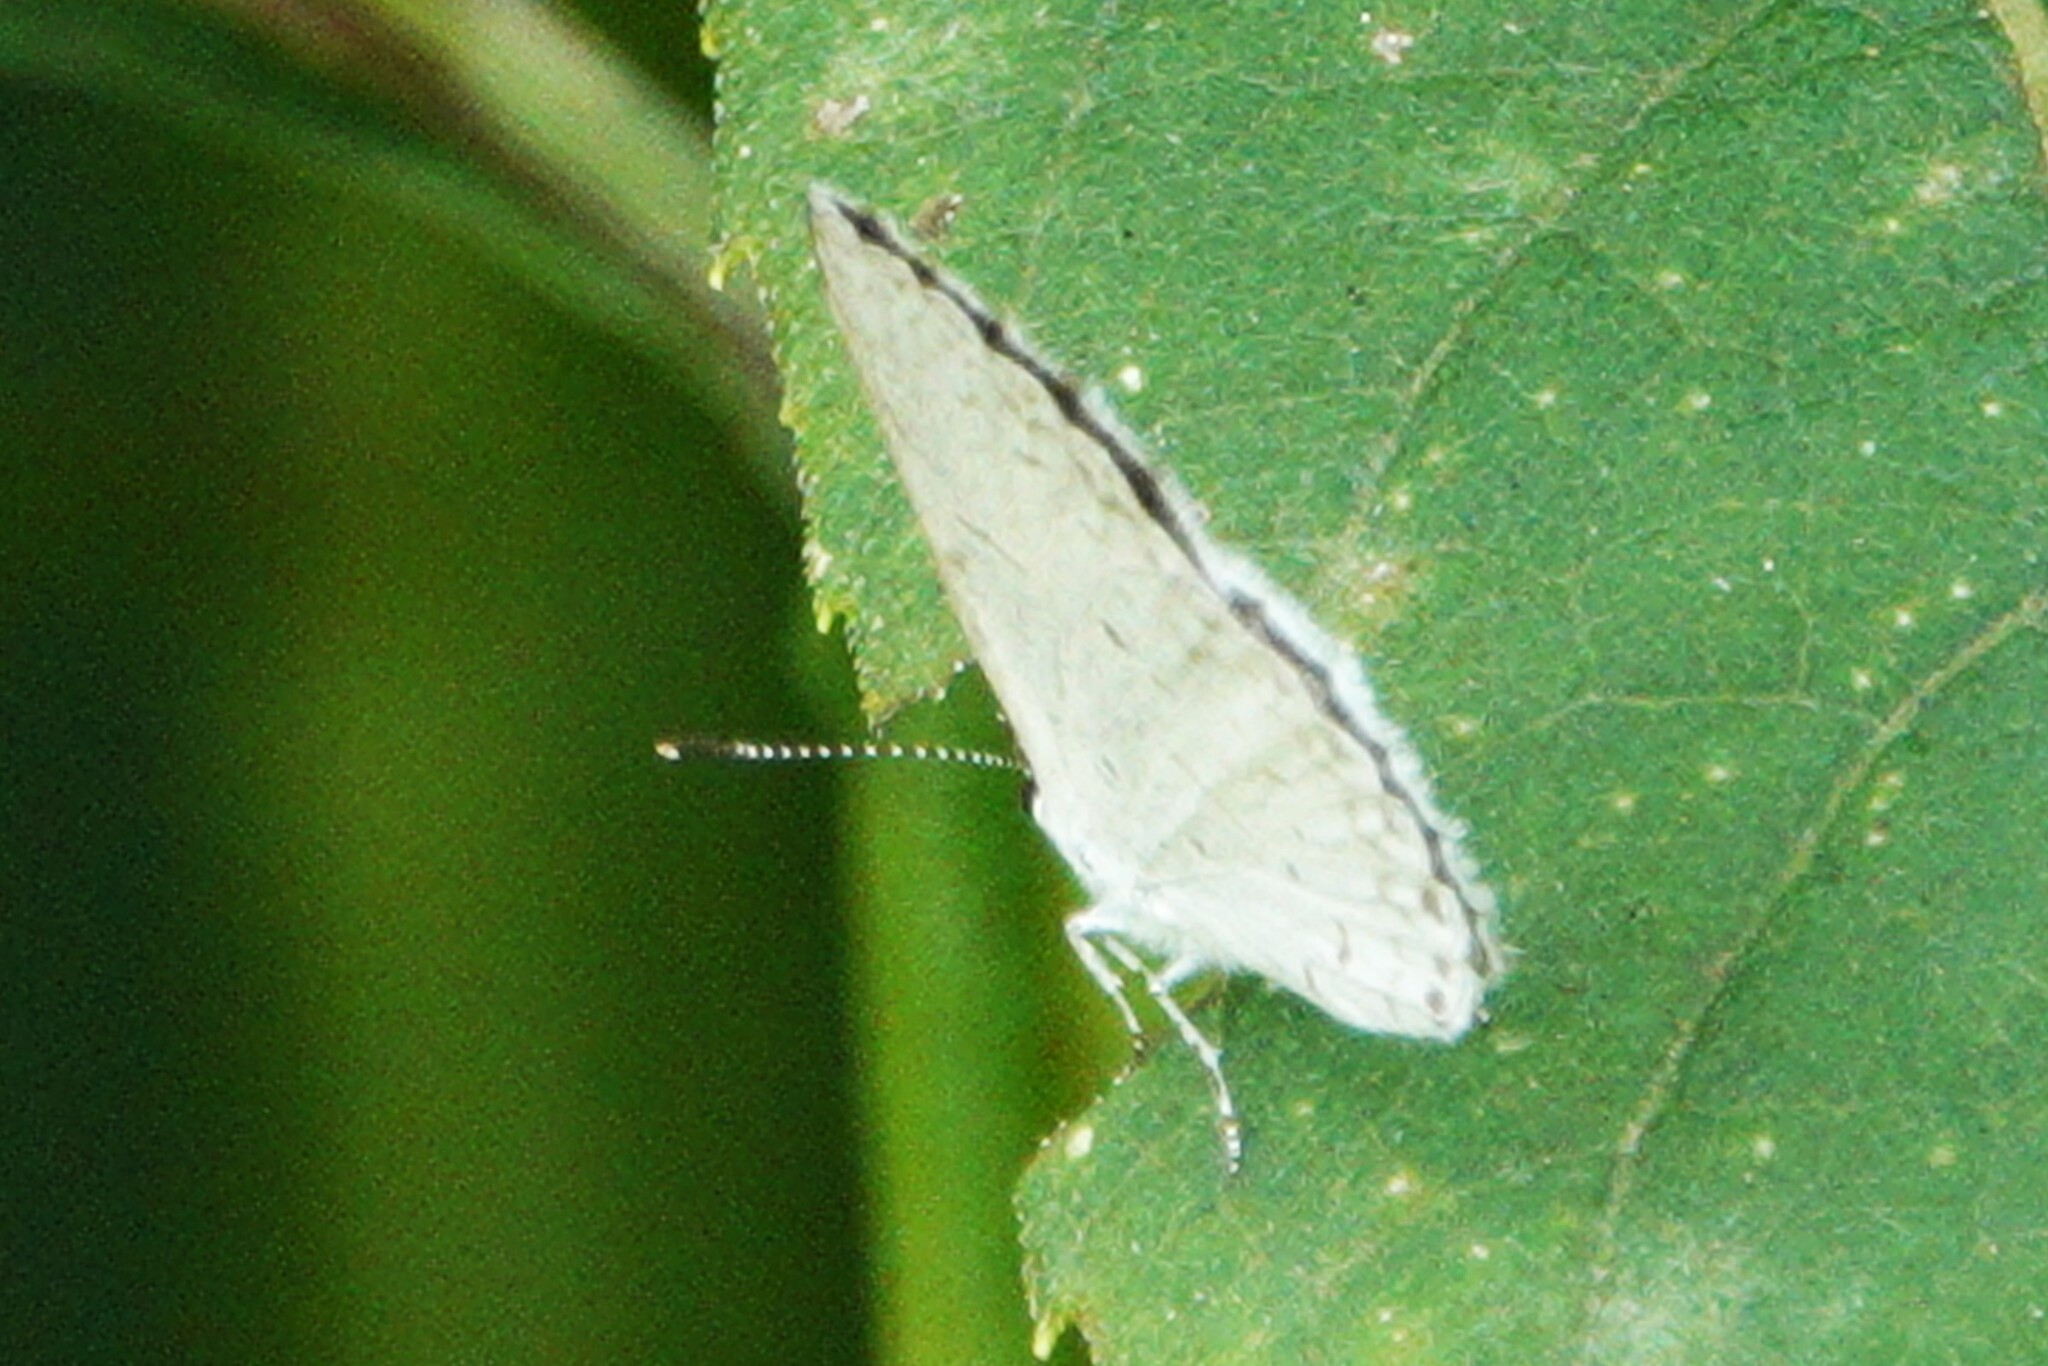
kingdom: Animalia
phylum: Arthropoda
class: Insecta
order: Lepidoptera
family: Lycaenidae
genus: Cyaniris
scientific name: Cyaniris neglecta
